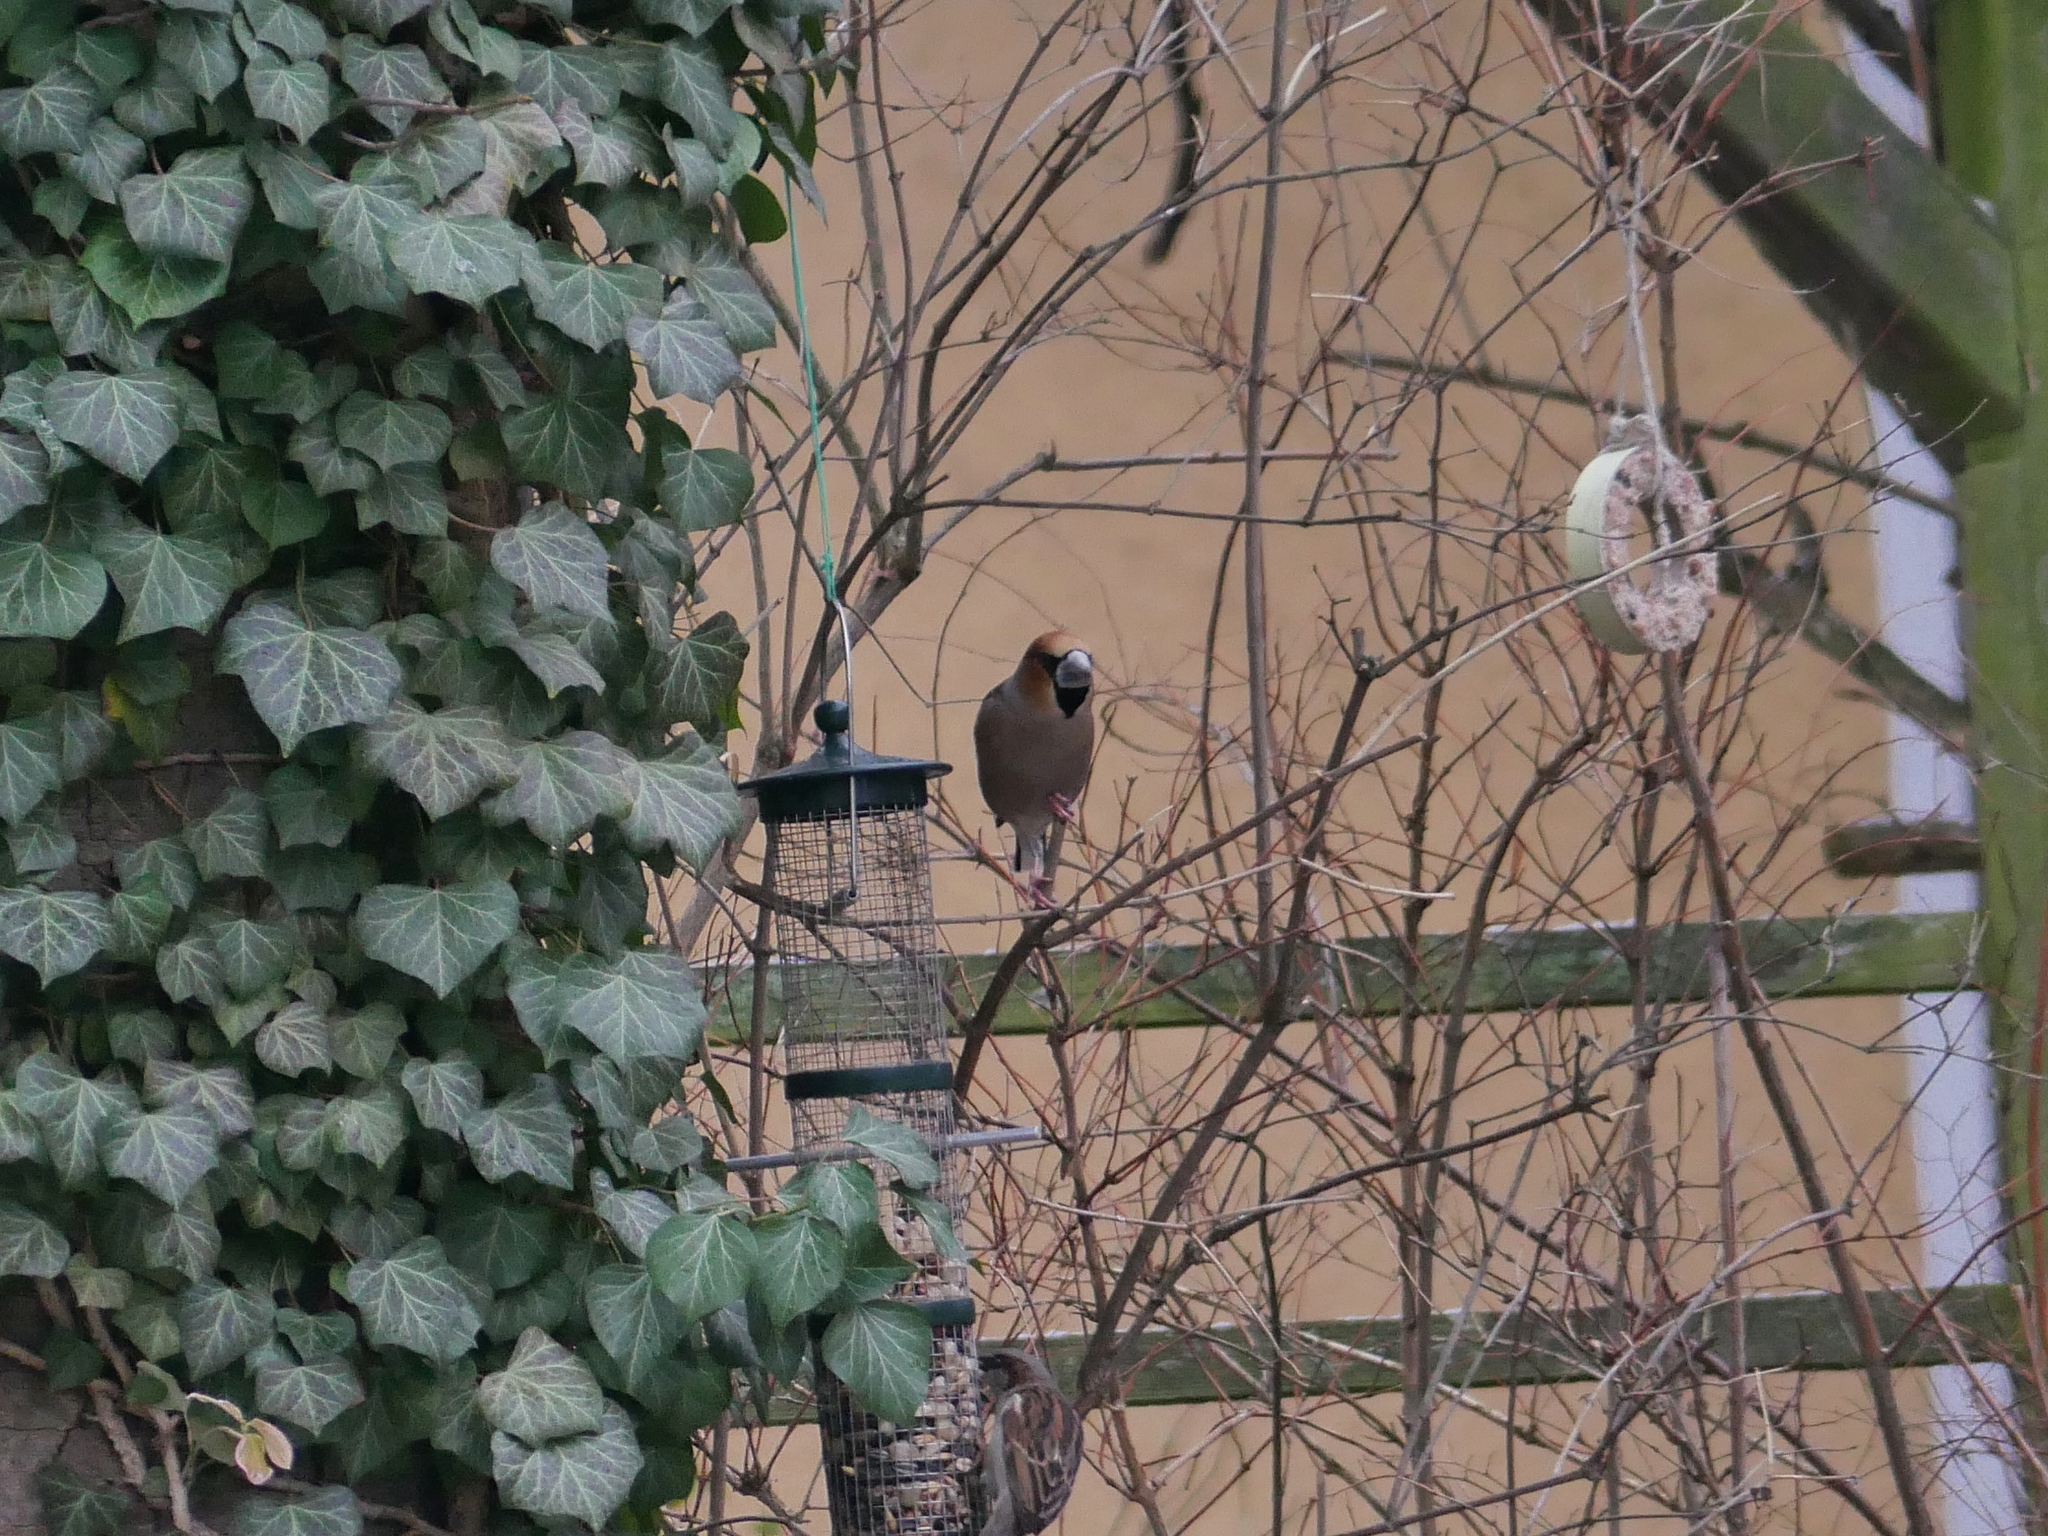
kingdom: Animalia
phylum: Chordata
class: Aves
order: Passeriformes
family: Fringillidae
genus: Coccothraustes
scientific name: Coccothraustes coccothraustes
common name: Hawfinch
